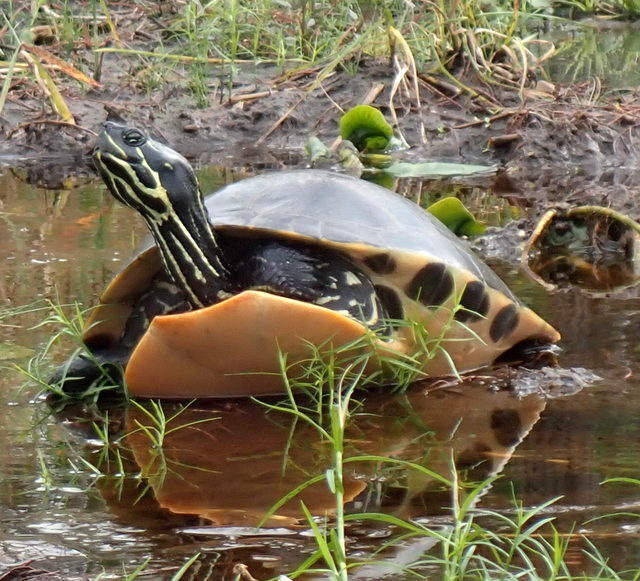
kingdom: Animalia
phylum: Chordata
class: Testudines
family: Emydidae
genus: Pseudemys
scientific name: Pseudemys concinna
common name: Eastern river cooter
